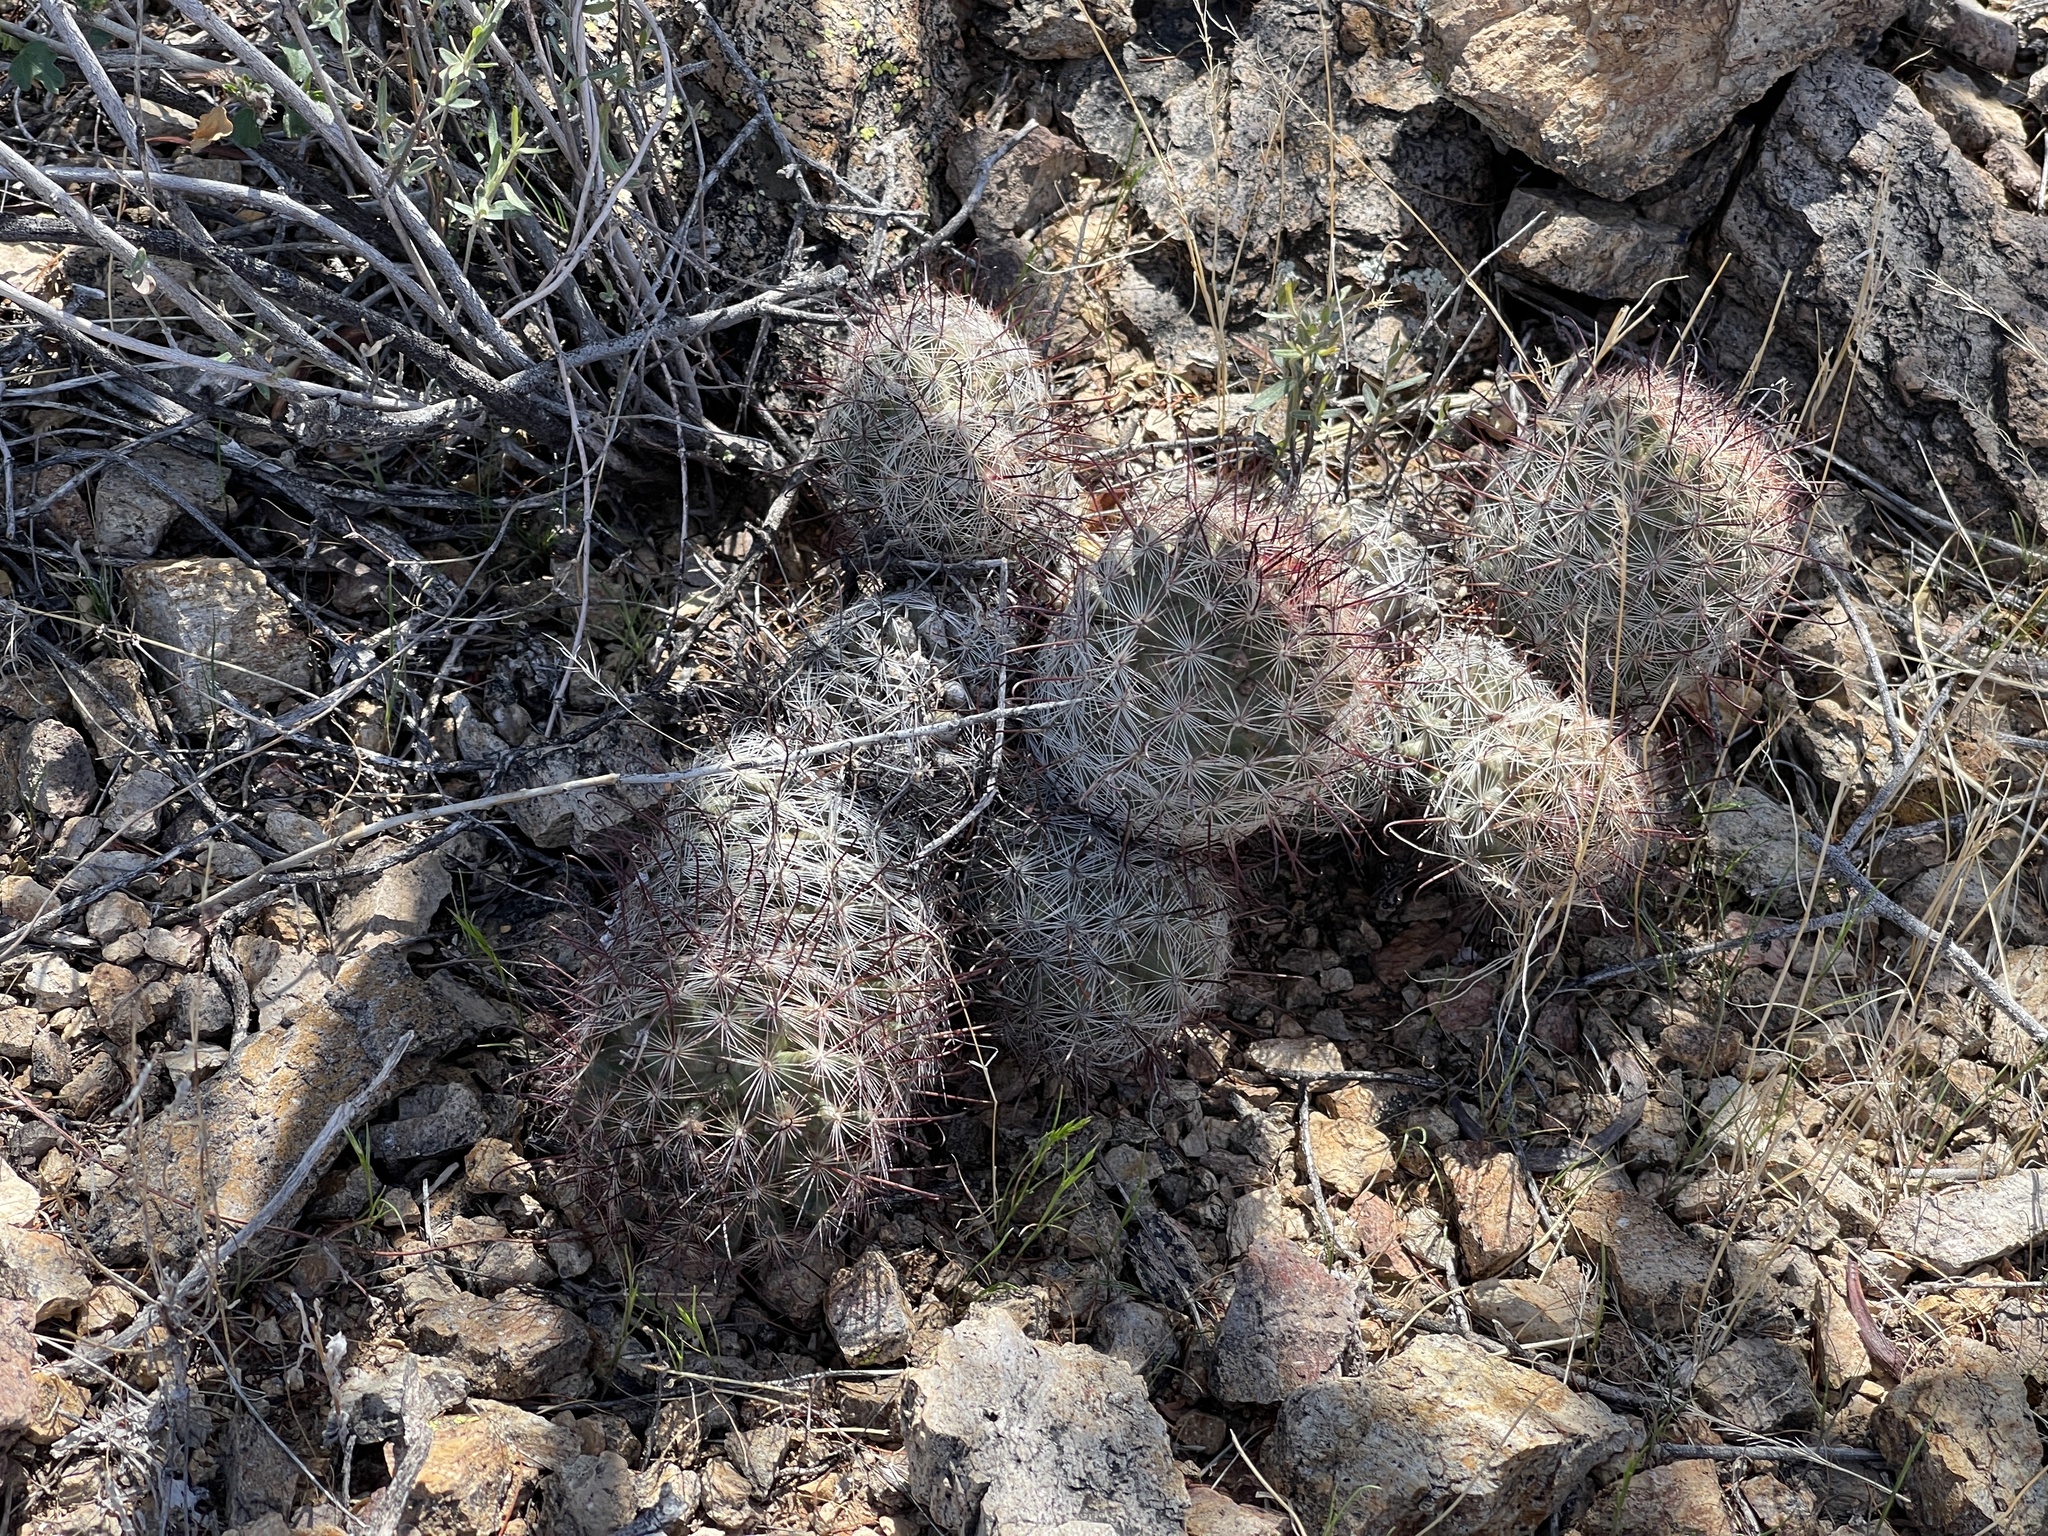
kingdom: Plantae
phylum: Tracheophyta
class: Magnoliopsida
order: Caryophyllales
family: Cactaceae
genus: Cochemiea
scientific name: Cochemiea grahamii
